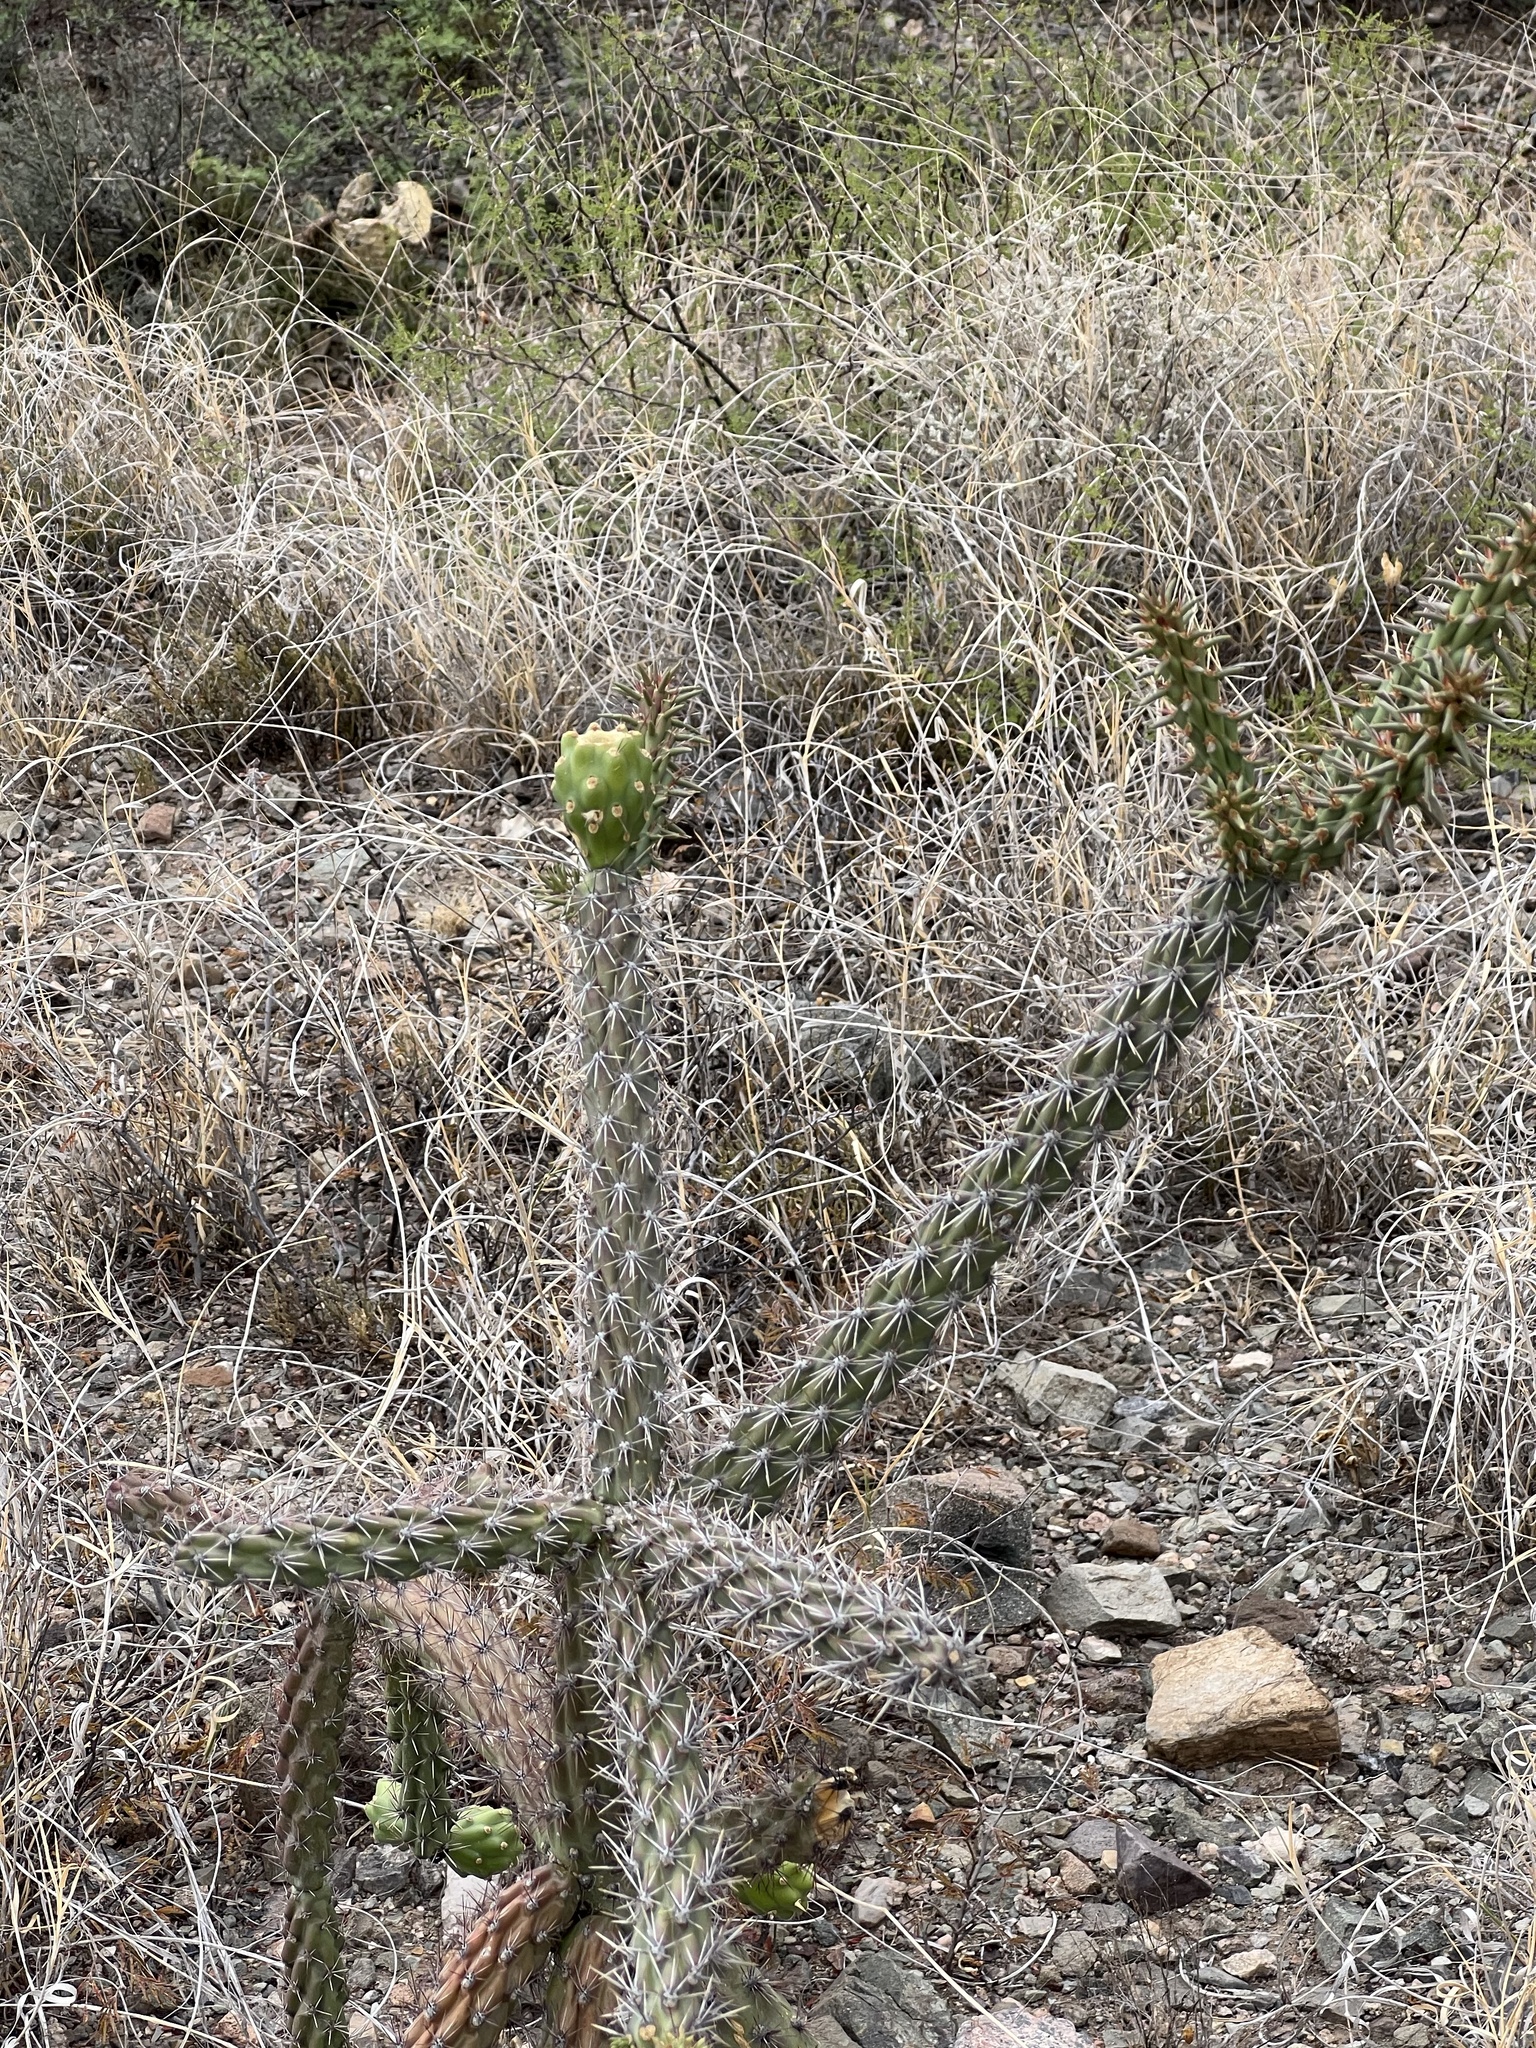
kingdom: Plantae
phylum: Tracheophyta
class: Magnoliopsida
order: Caryophyllales
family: Cactaceae
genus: Cylindropuntia
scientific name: Cylindropuntia imbricata
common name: Candelabrum cactus
